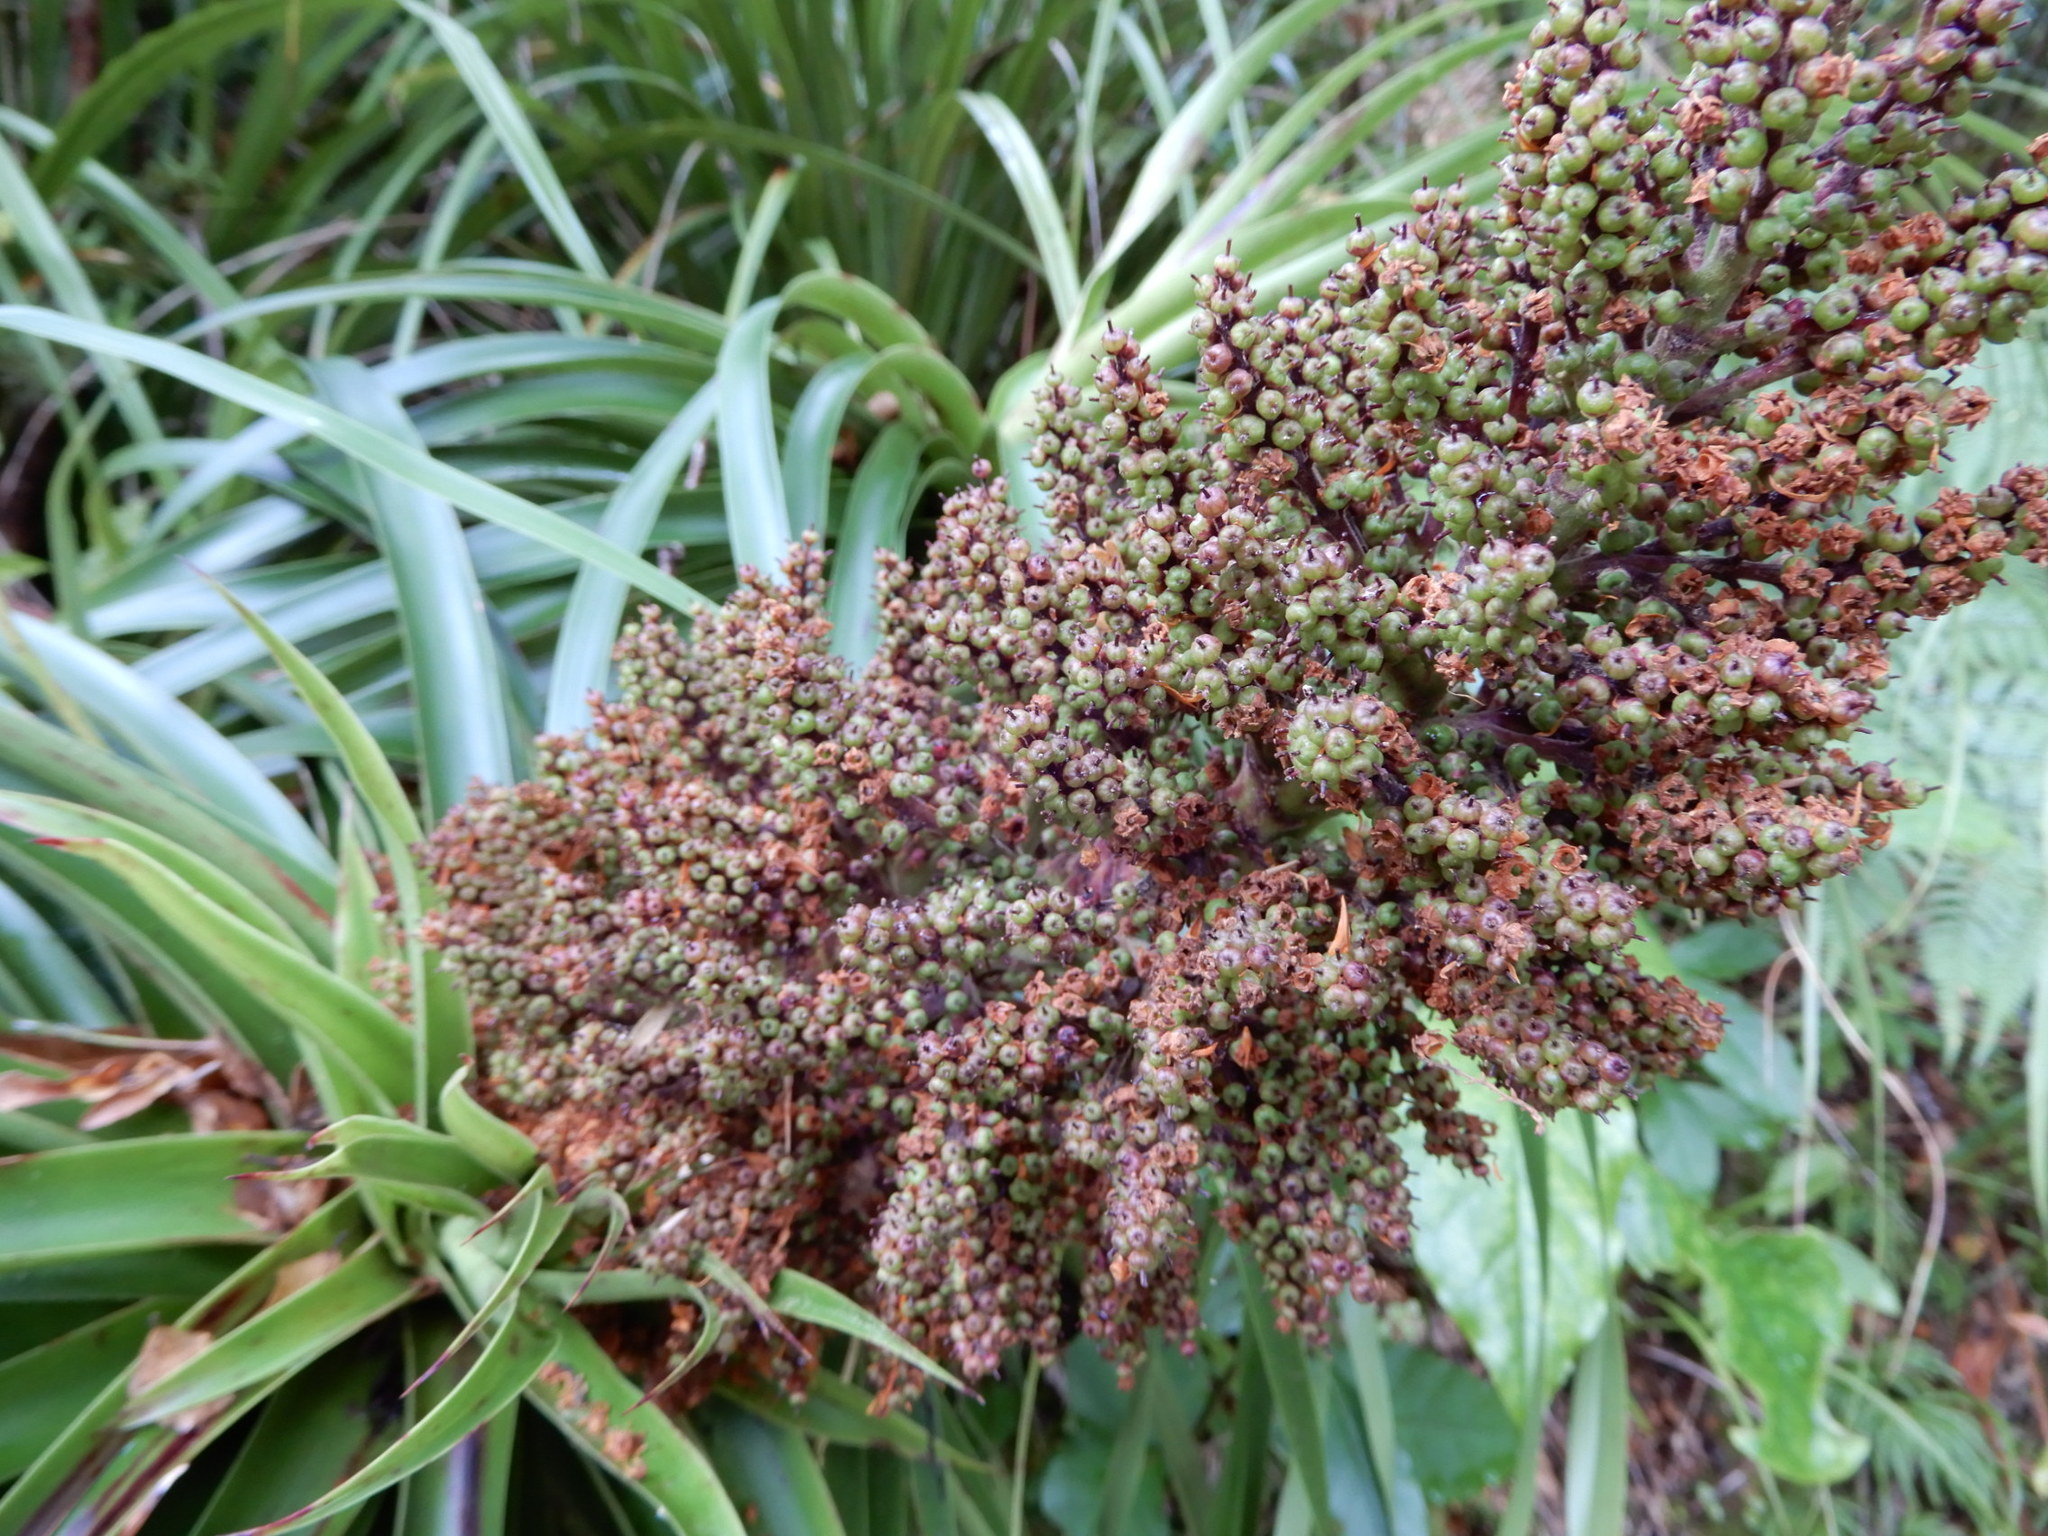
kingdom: Plantae
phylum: Tracheophyta
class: Magnoliopsida
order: Ericales
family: Ericaceae
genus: Dracophyllum
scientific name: Dracophyllum elegantissimum
